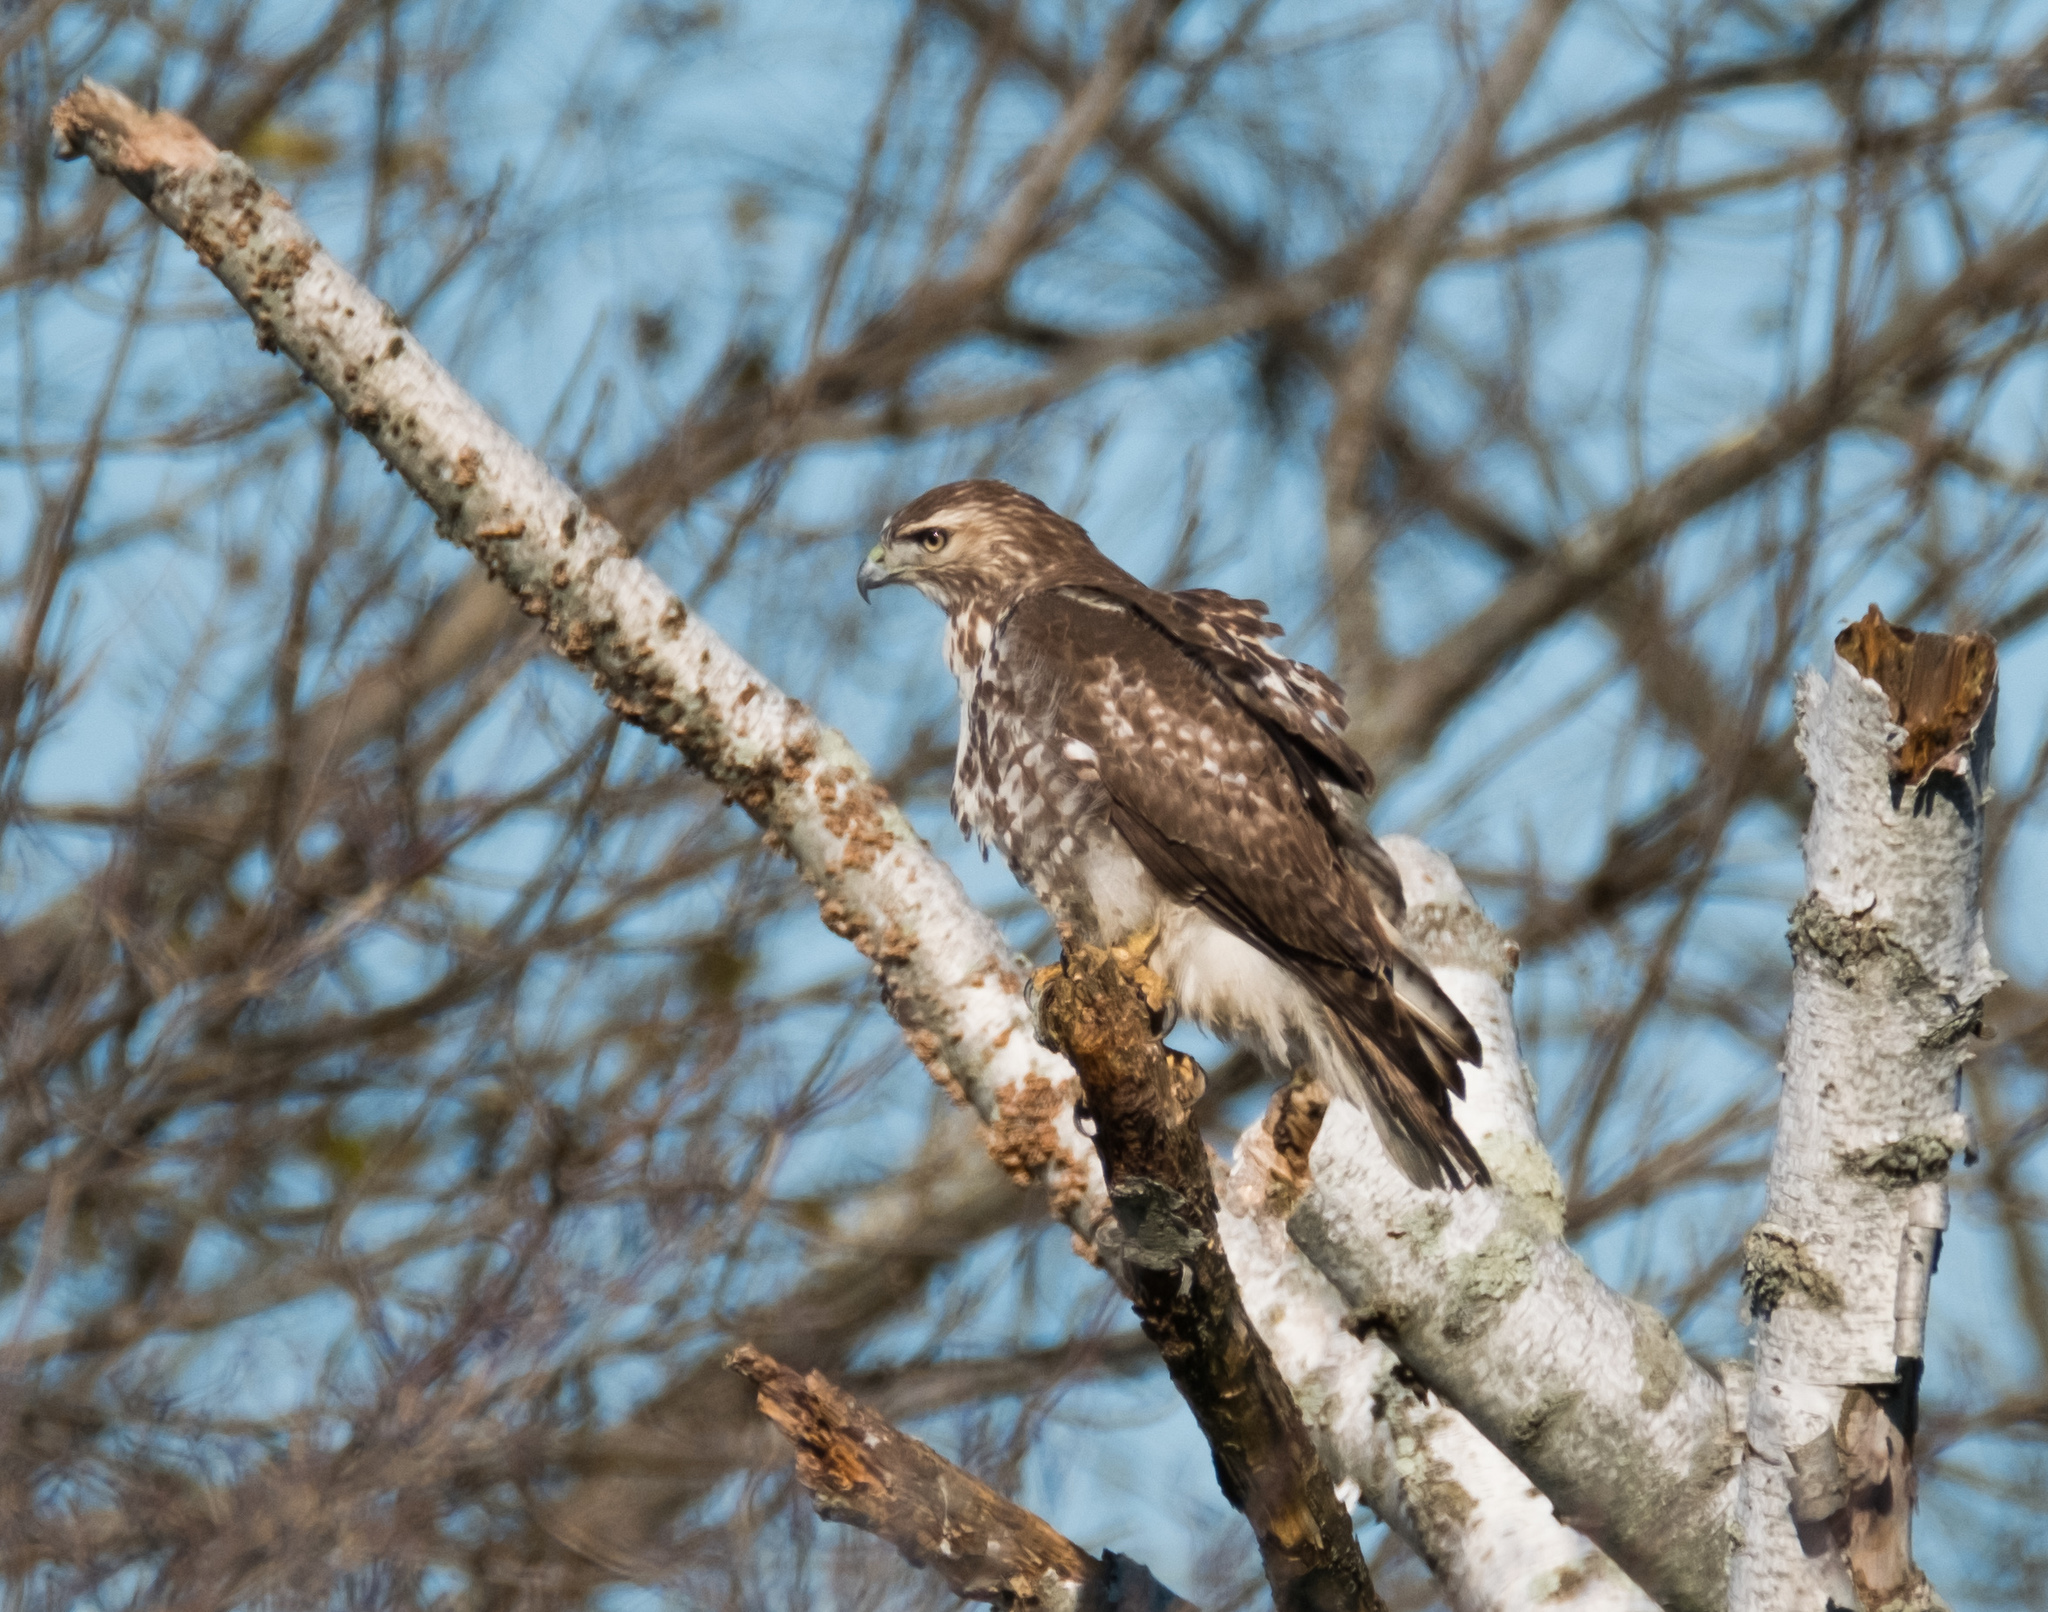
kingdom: Animalia
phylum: Chordata
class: Aves
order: Accipitriformes
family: Accipitridae
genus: Buteo
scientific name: Buteo jamaicensis
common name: Red-tailed hawk
